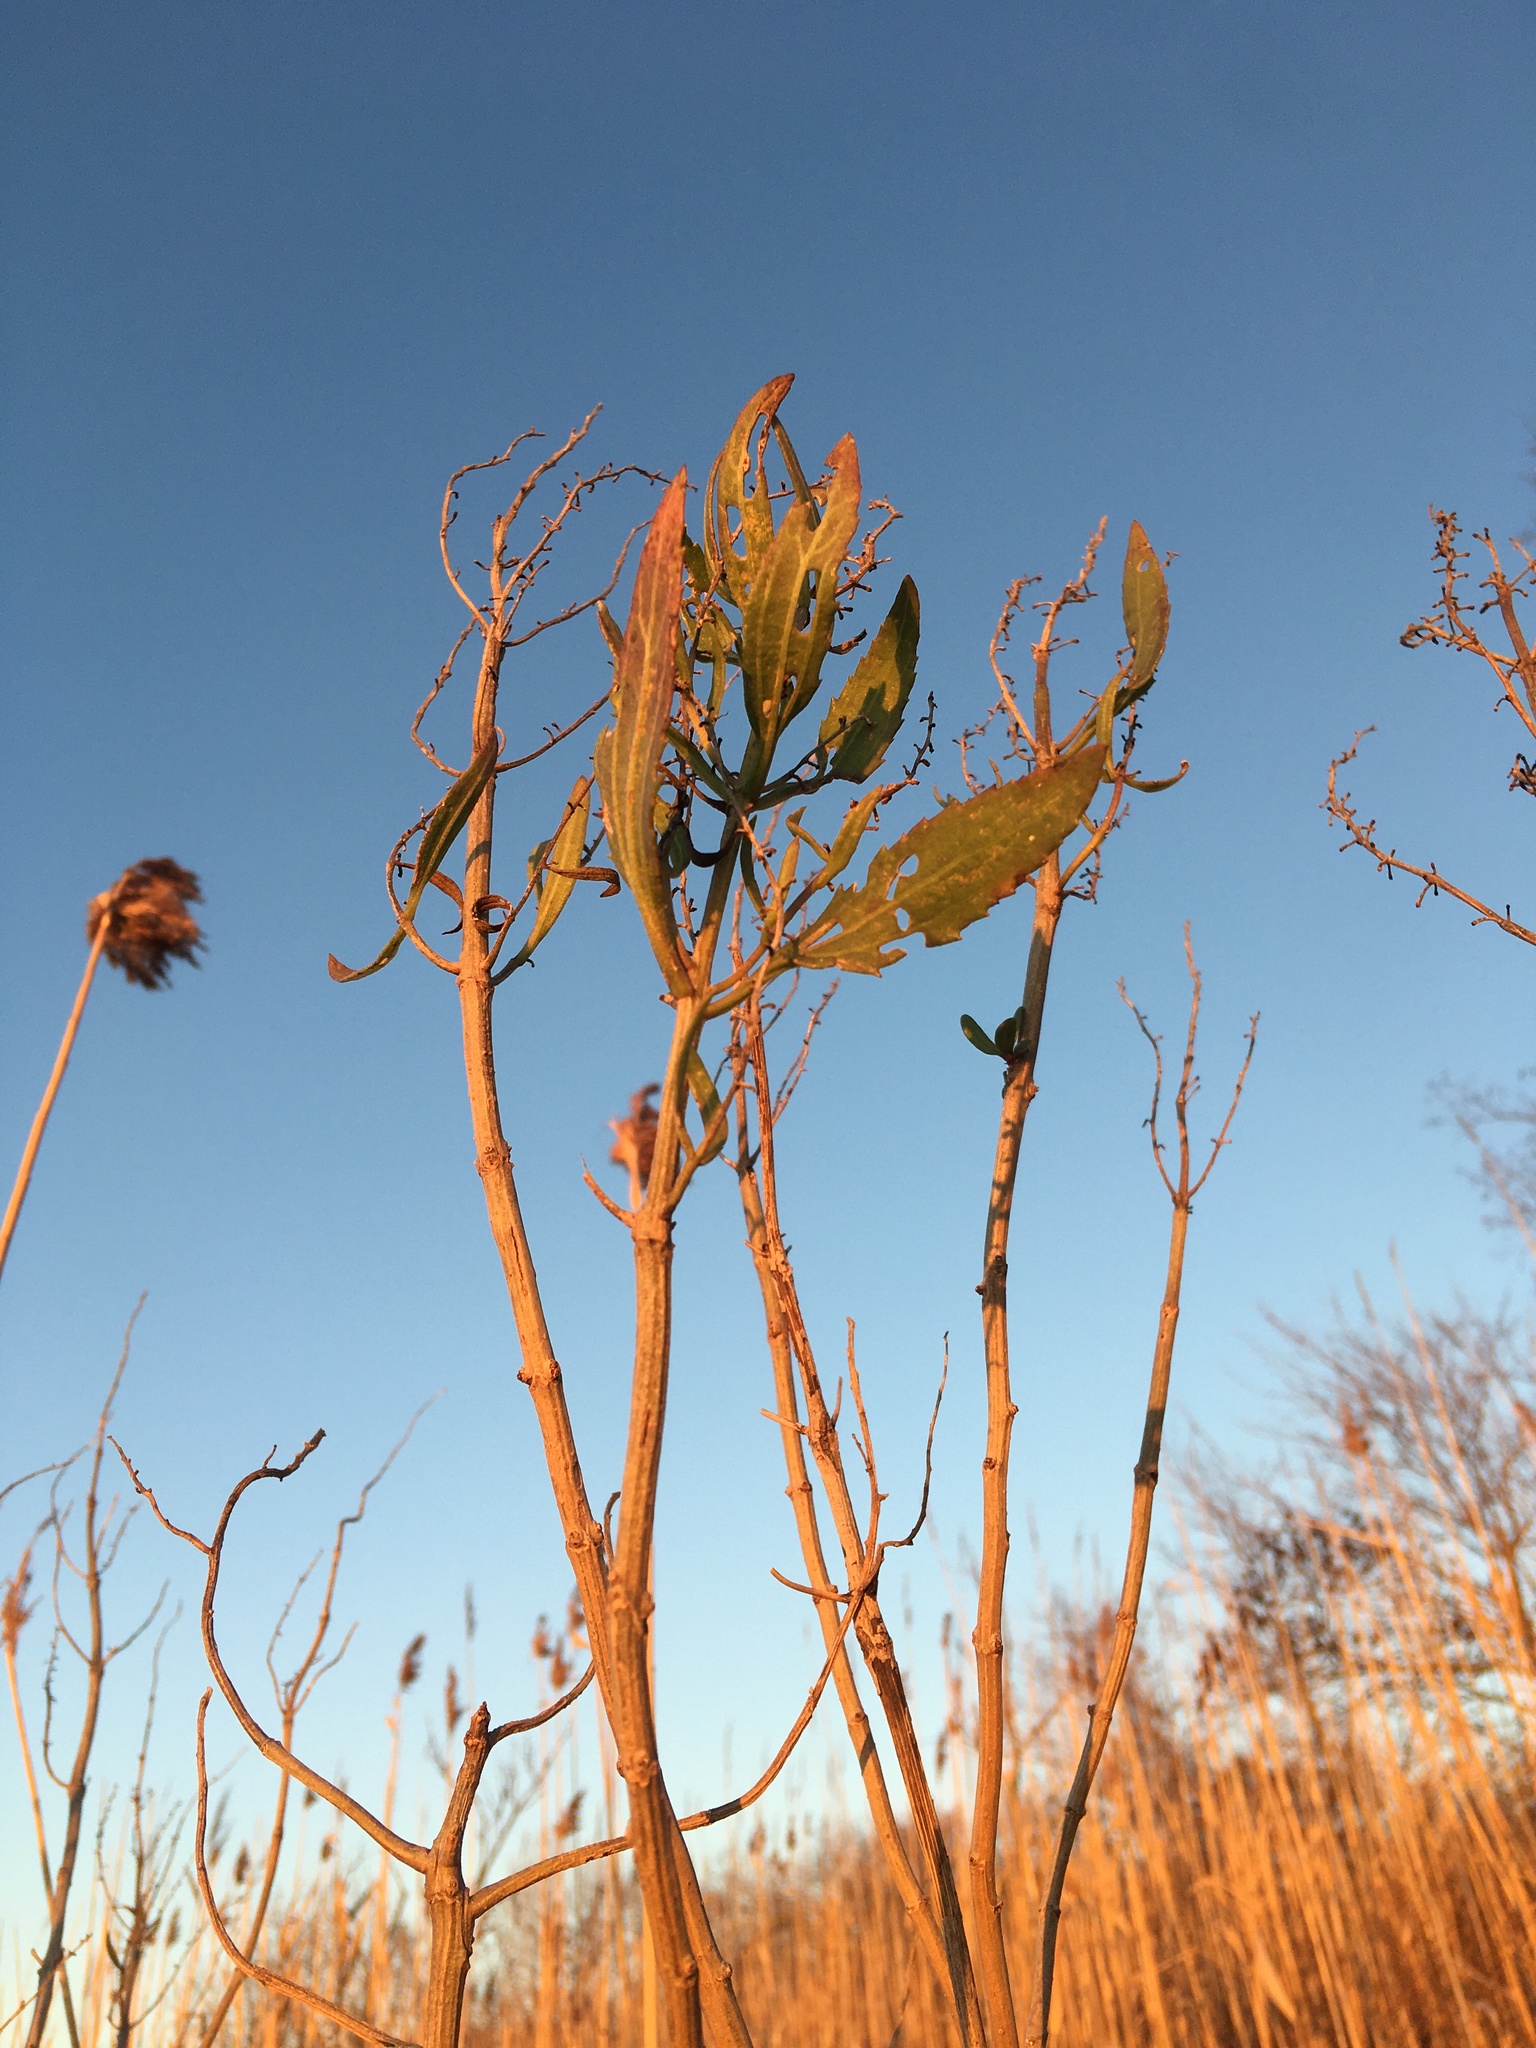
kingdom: Plantae
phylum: Tracheophyta
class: Magnoliopsida
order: Asterales
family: Asteraceae
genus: Iva
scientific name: Iva frutescens
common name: Big-leaved marsh-elder
